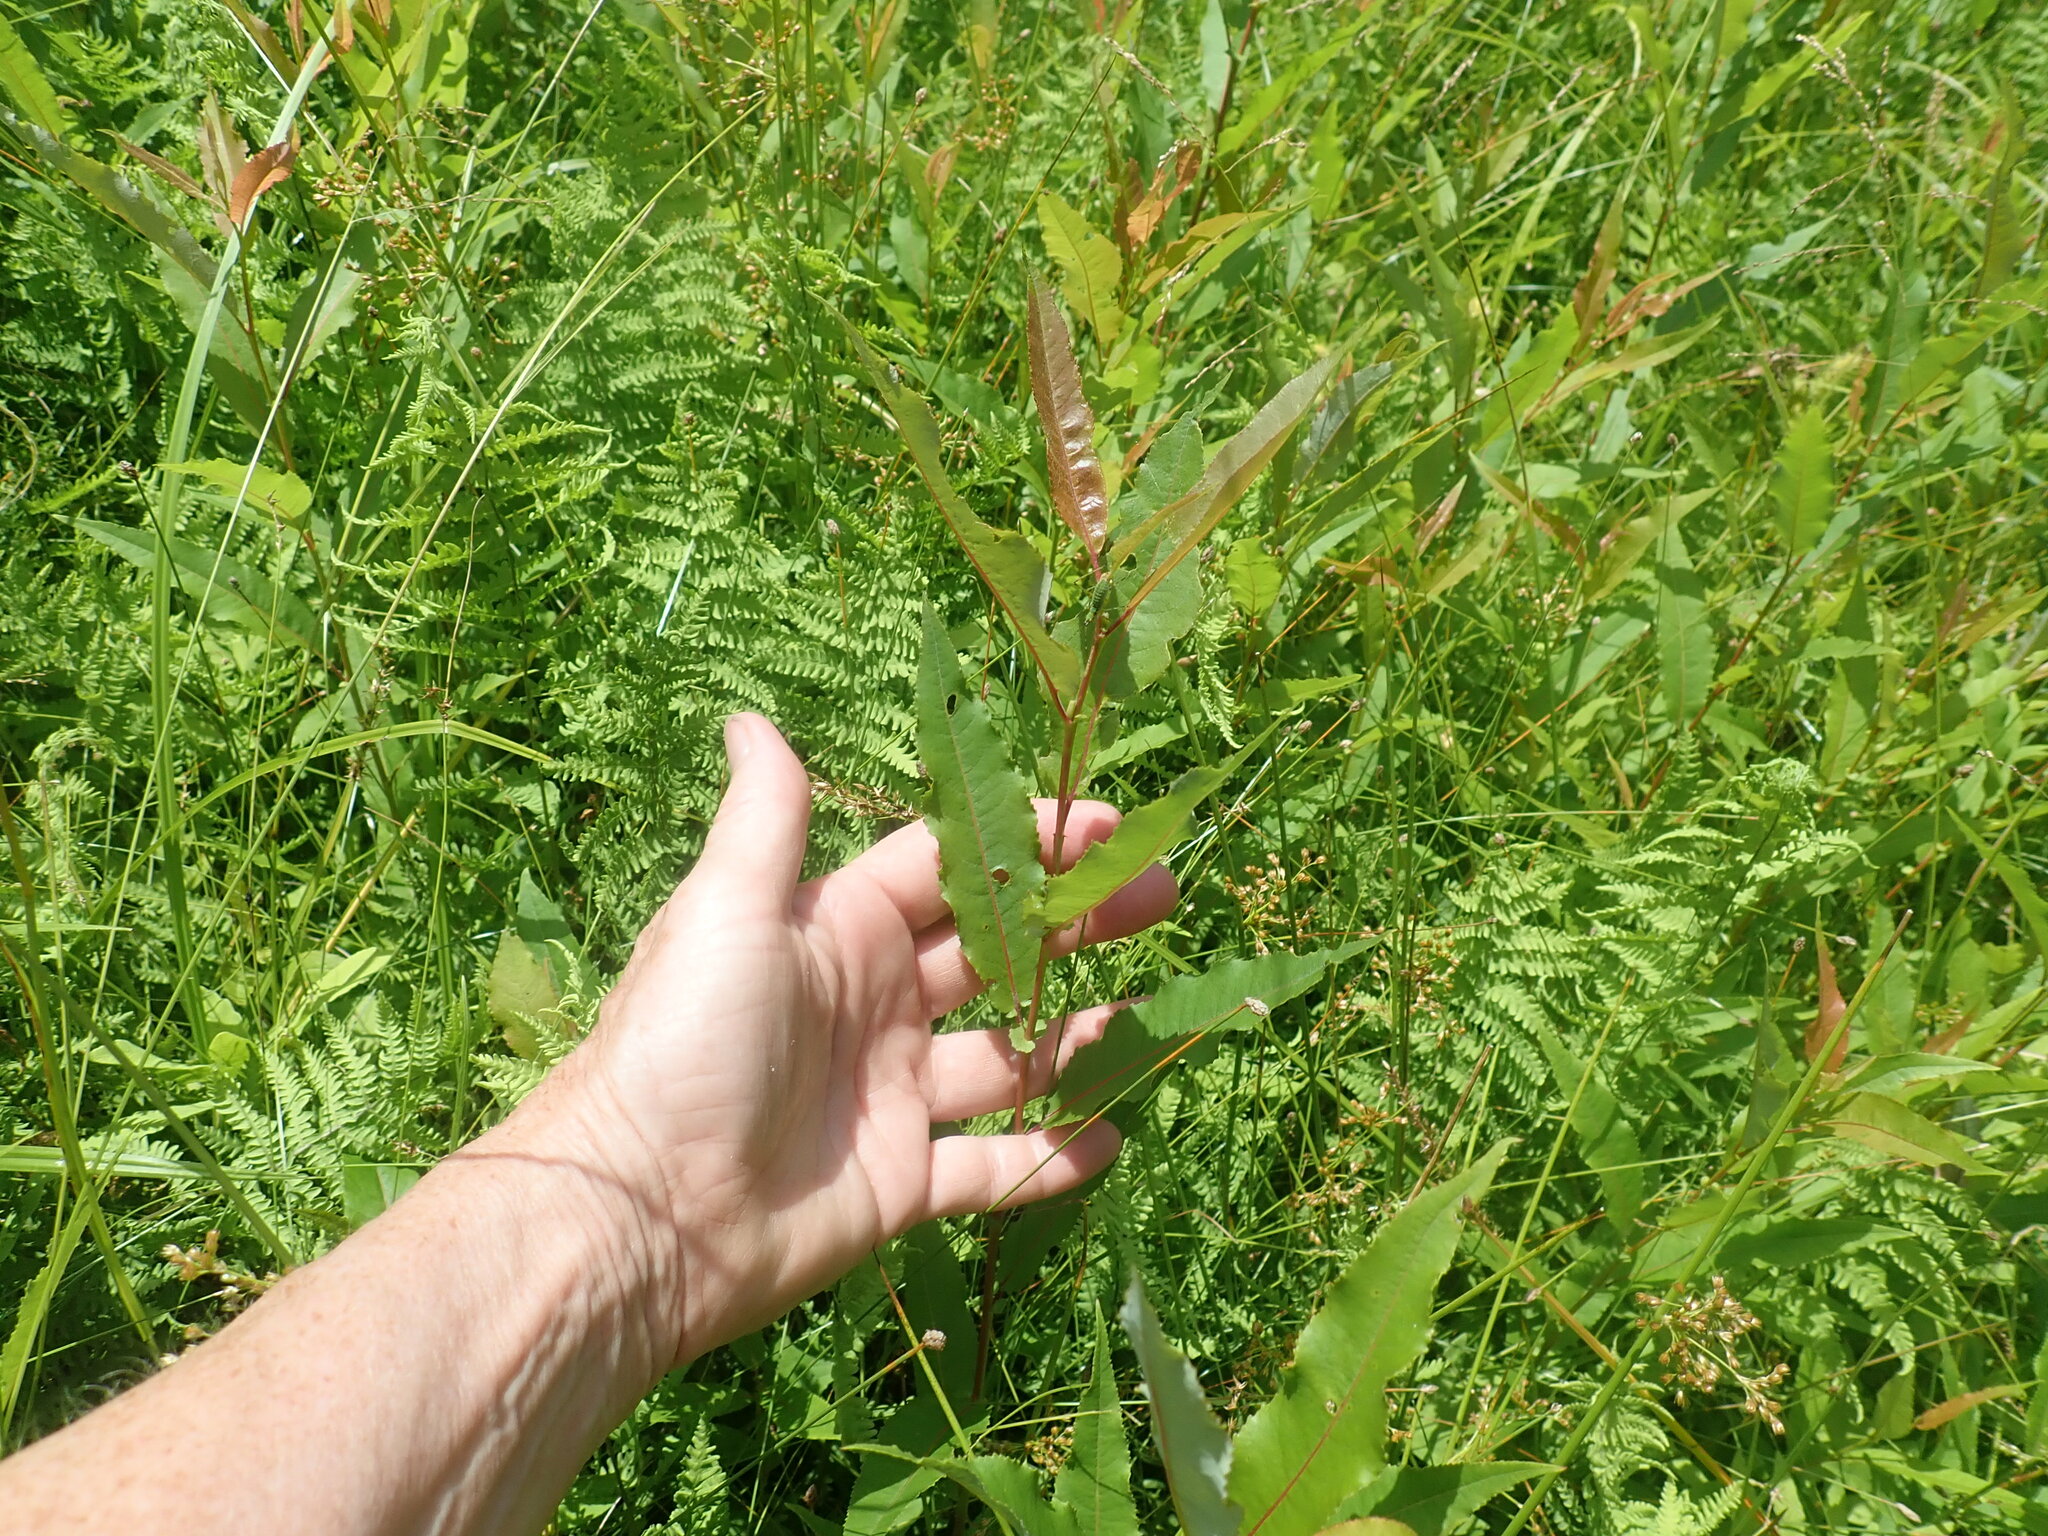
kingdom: Plantae
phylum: Tracheophyta
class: Magnoliopsida
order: Malpighiales
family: Salicaceae
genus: Salix
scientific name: Salix eriocephala
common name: Heart-leaved willow
